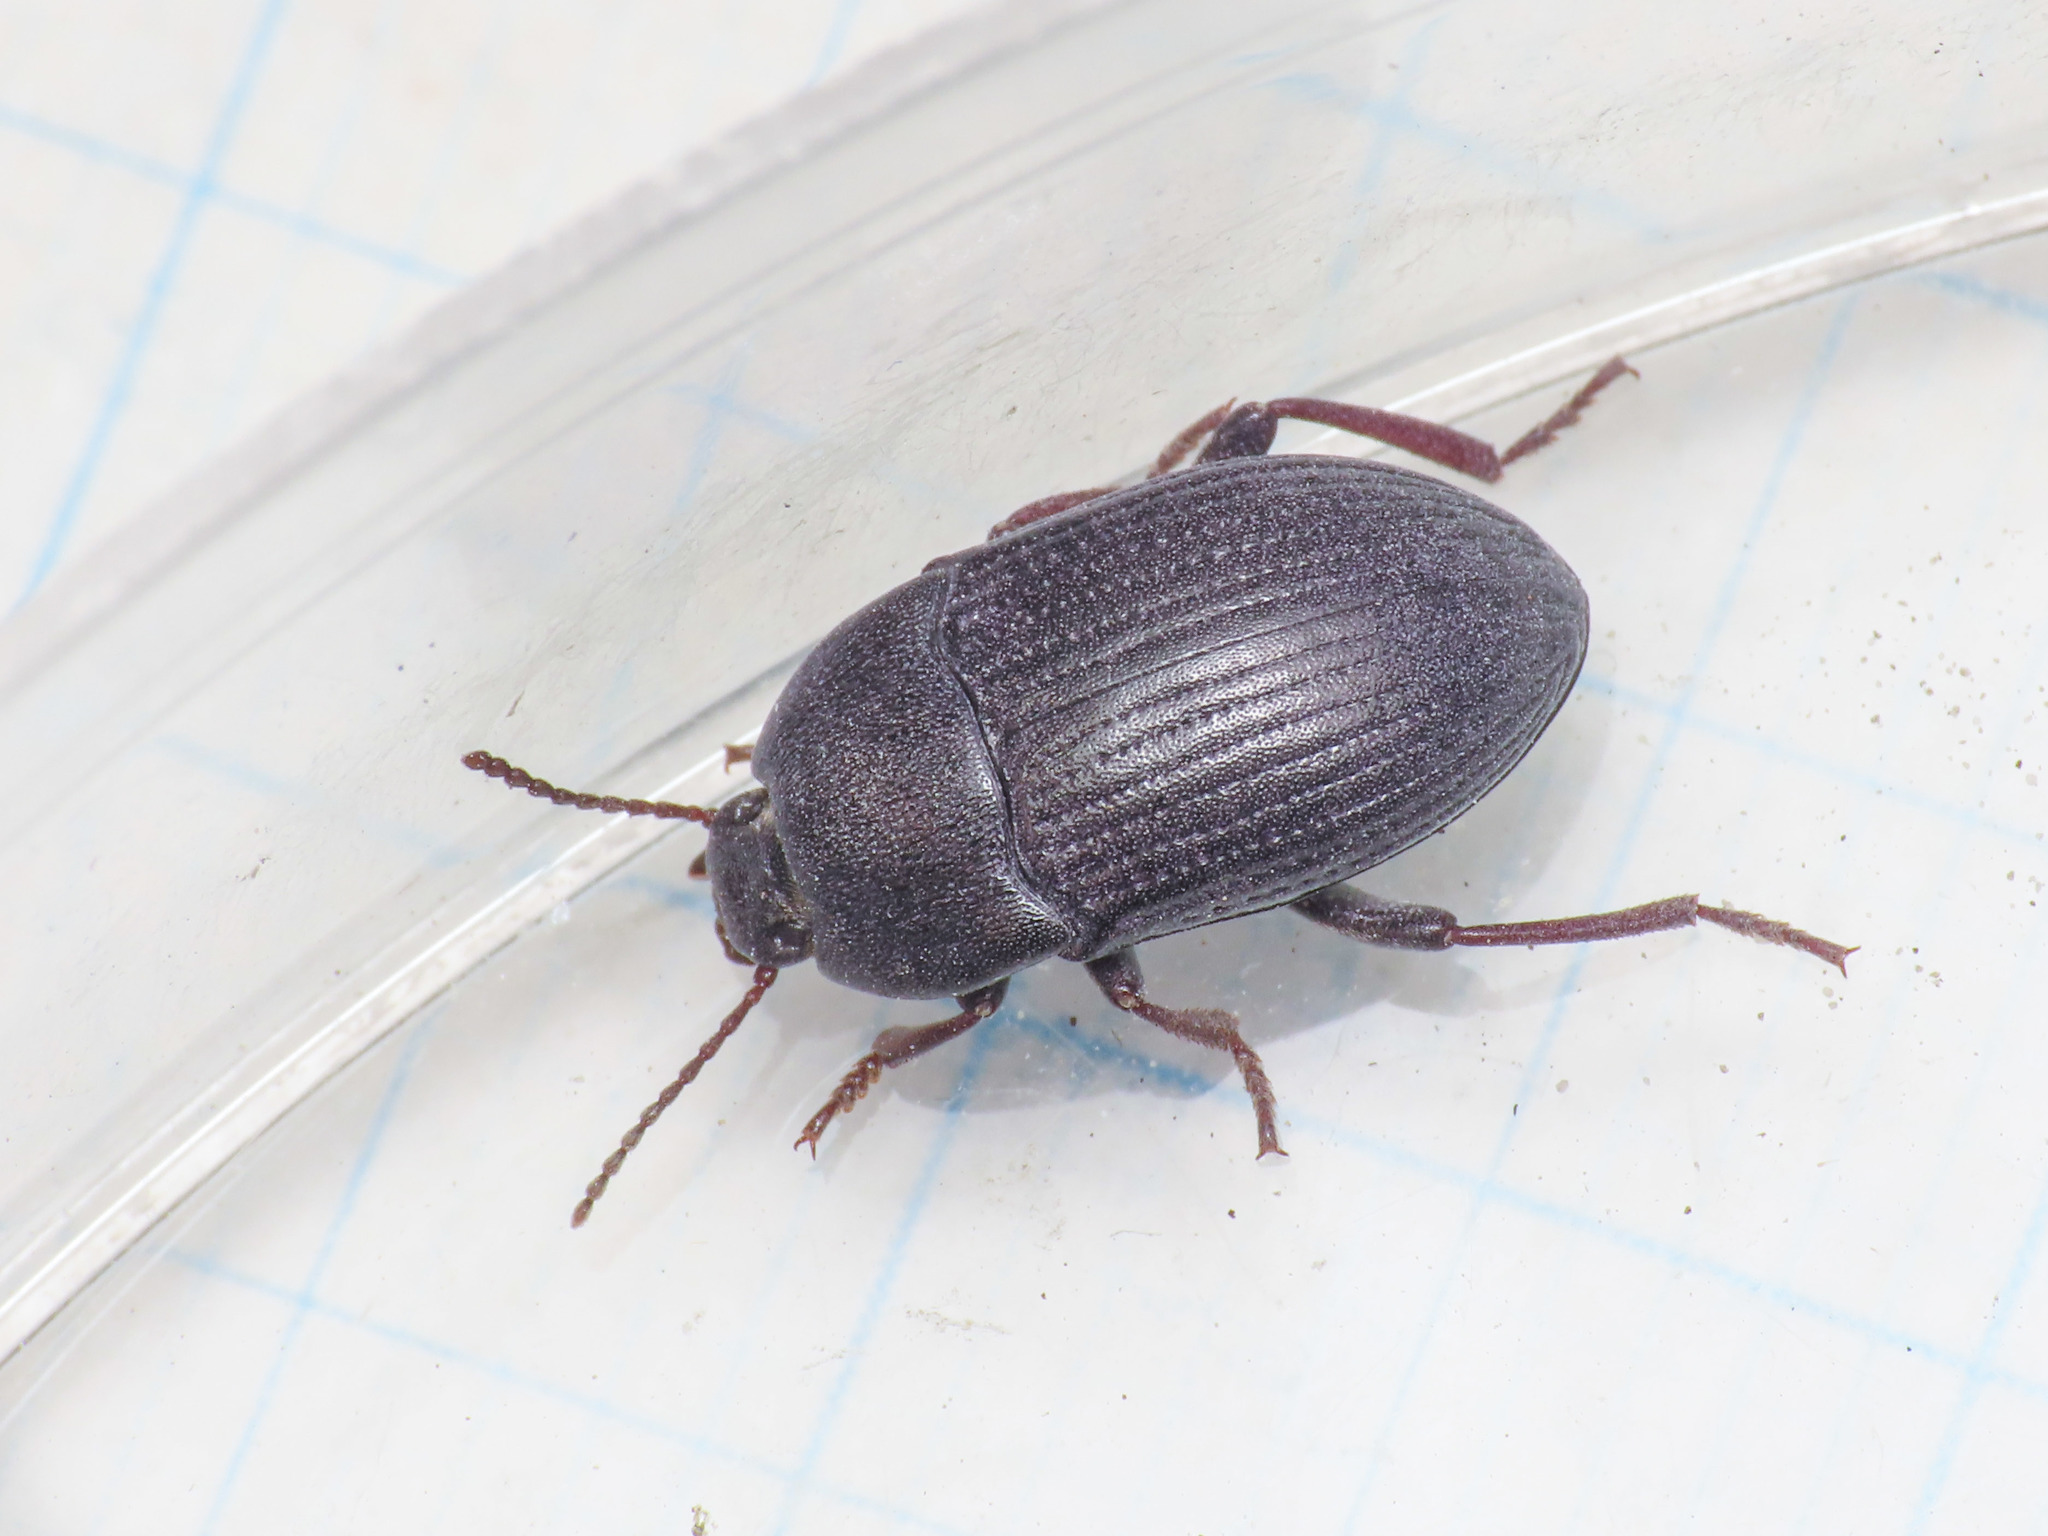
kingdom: Animalia
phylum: Arthropoda
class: Insecta
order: Coleoptera
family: Tenebrionidae
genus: Colpotus
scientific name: Colpotus strigosus
